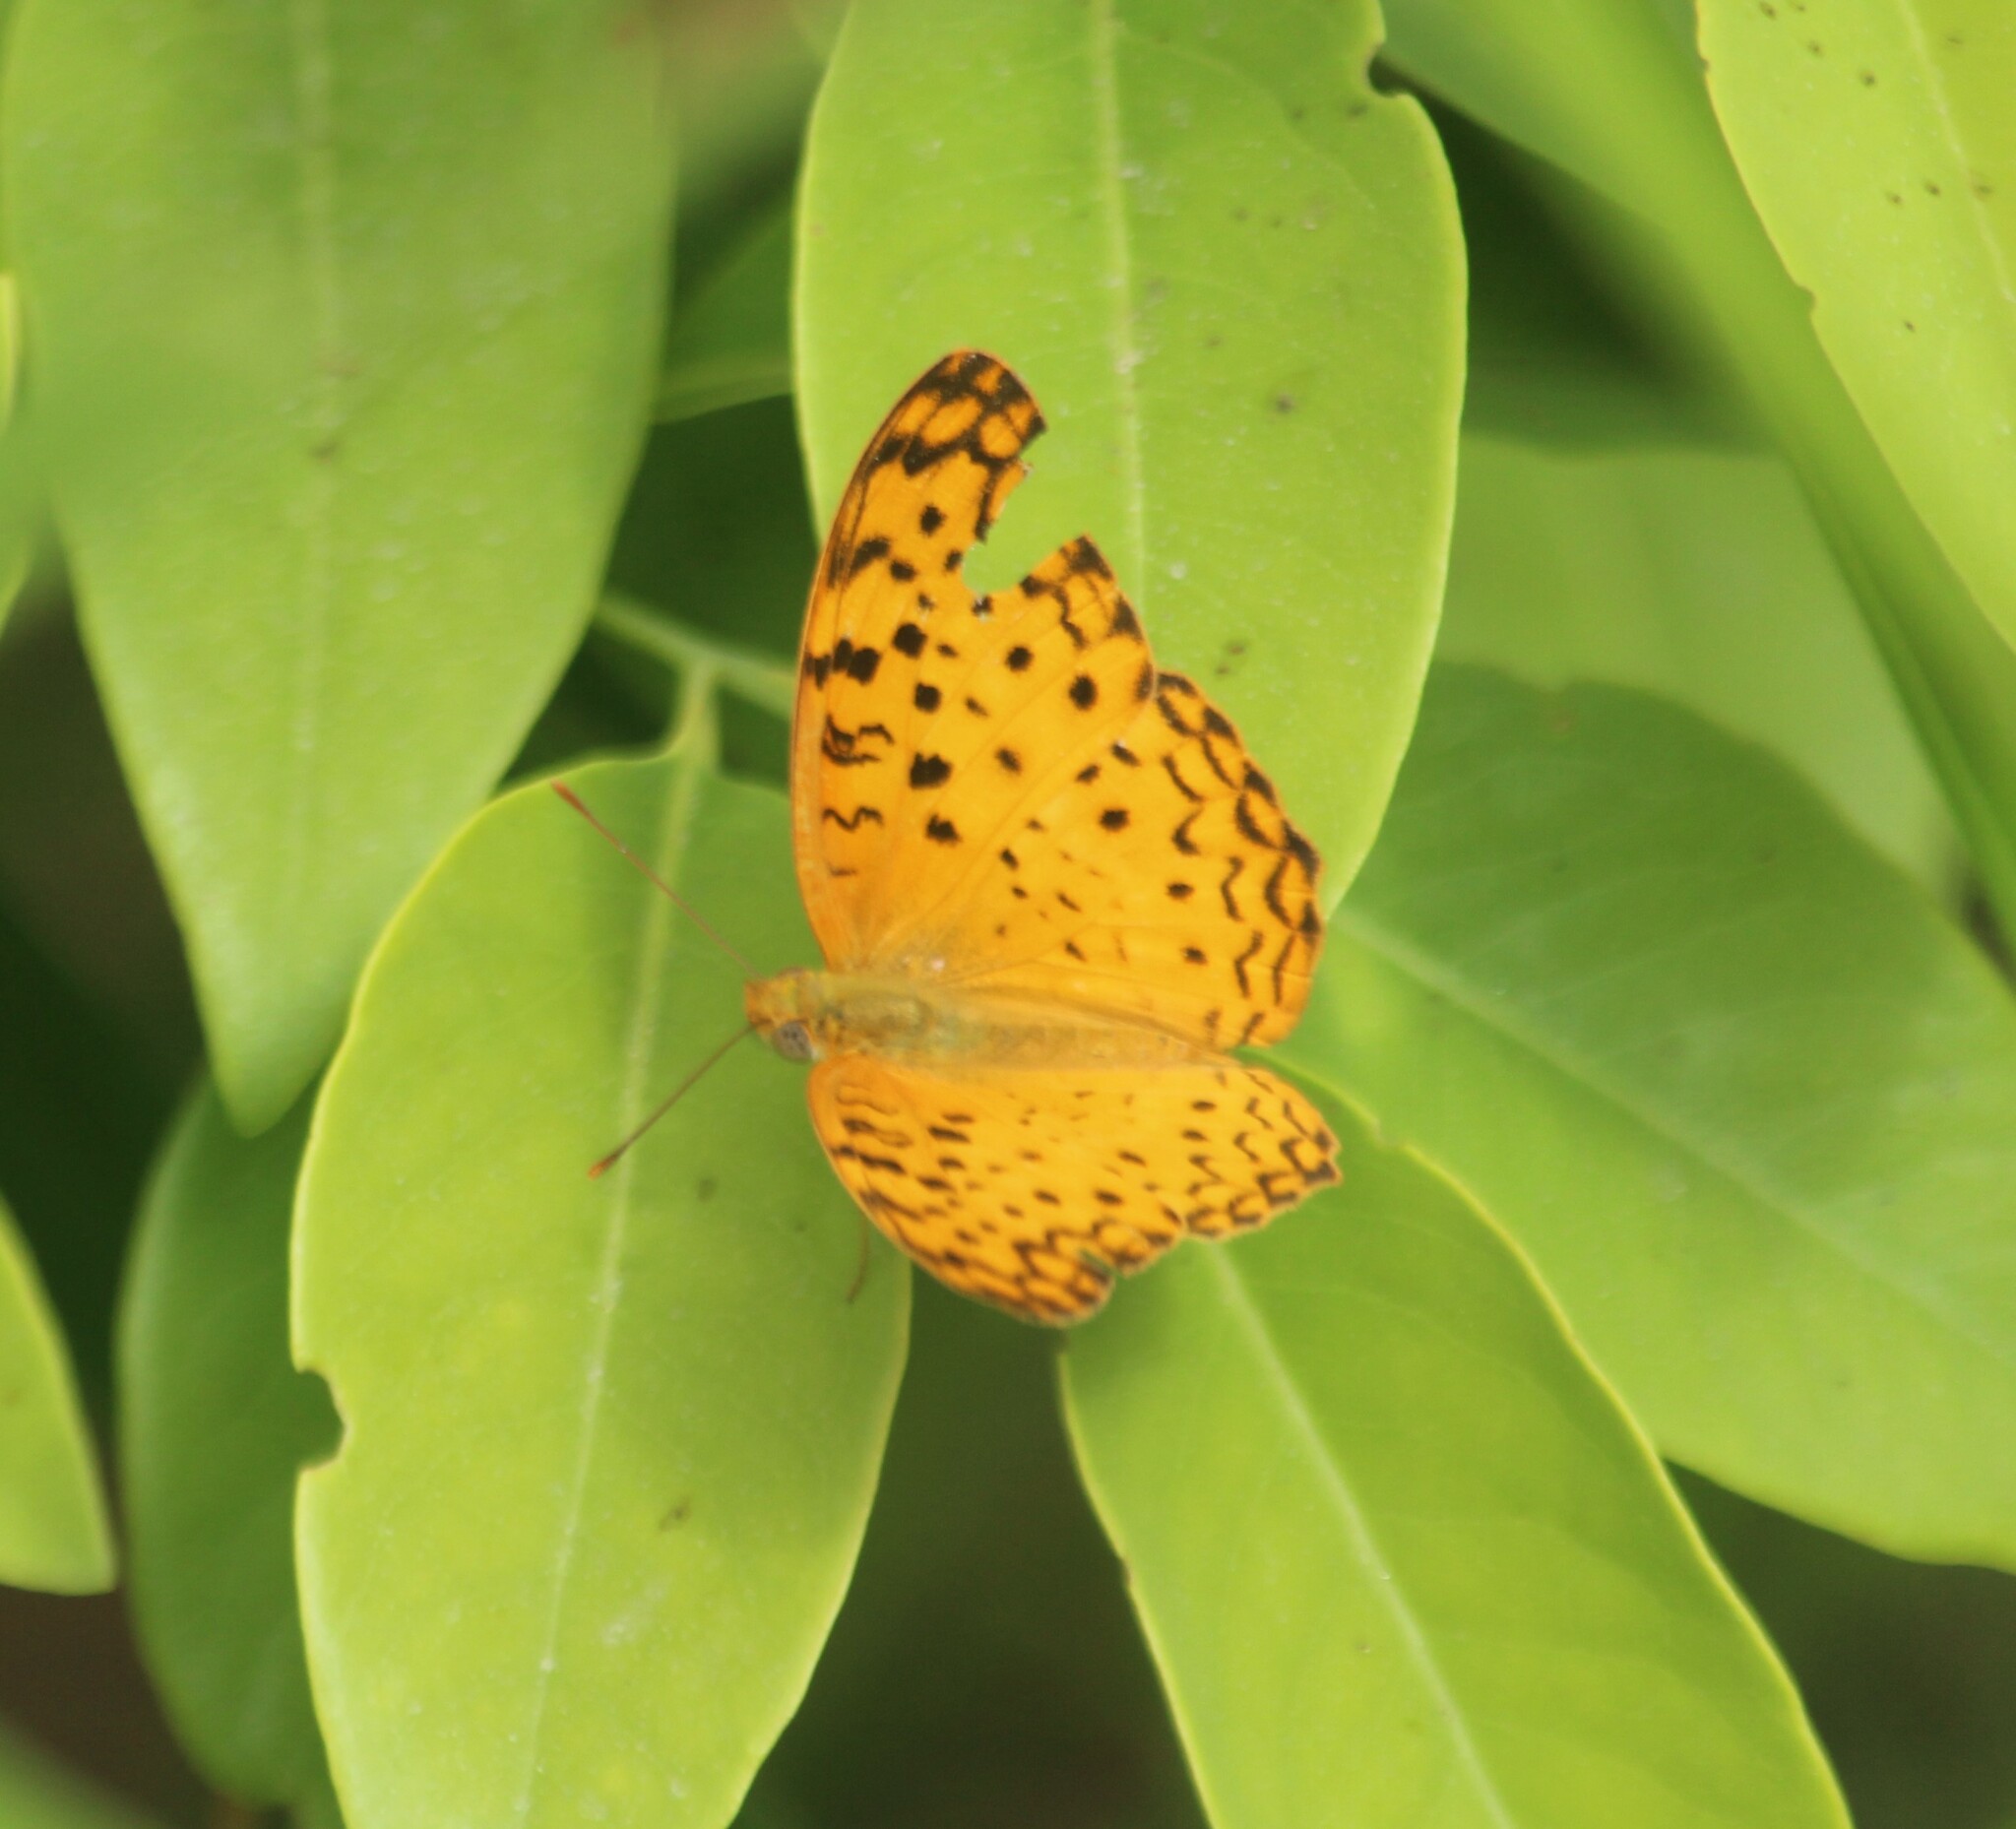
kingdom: Animalia
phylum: Arthropoda
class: Insecta
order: Lepidoptera
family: Nymphalidae
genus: Phalanta
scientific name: Phalanta phalantha
